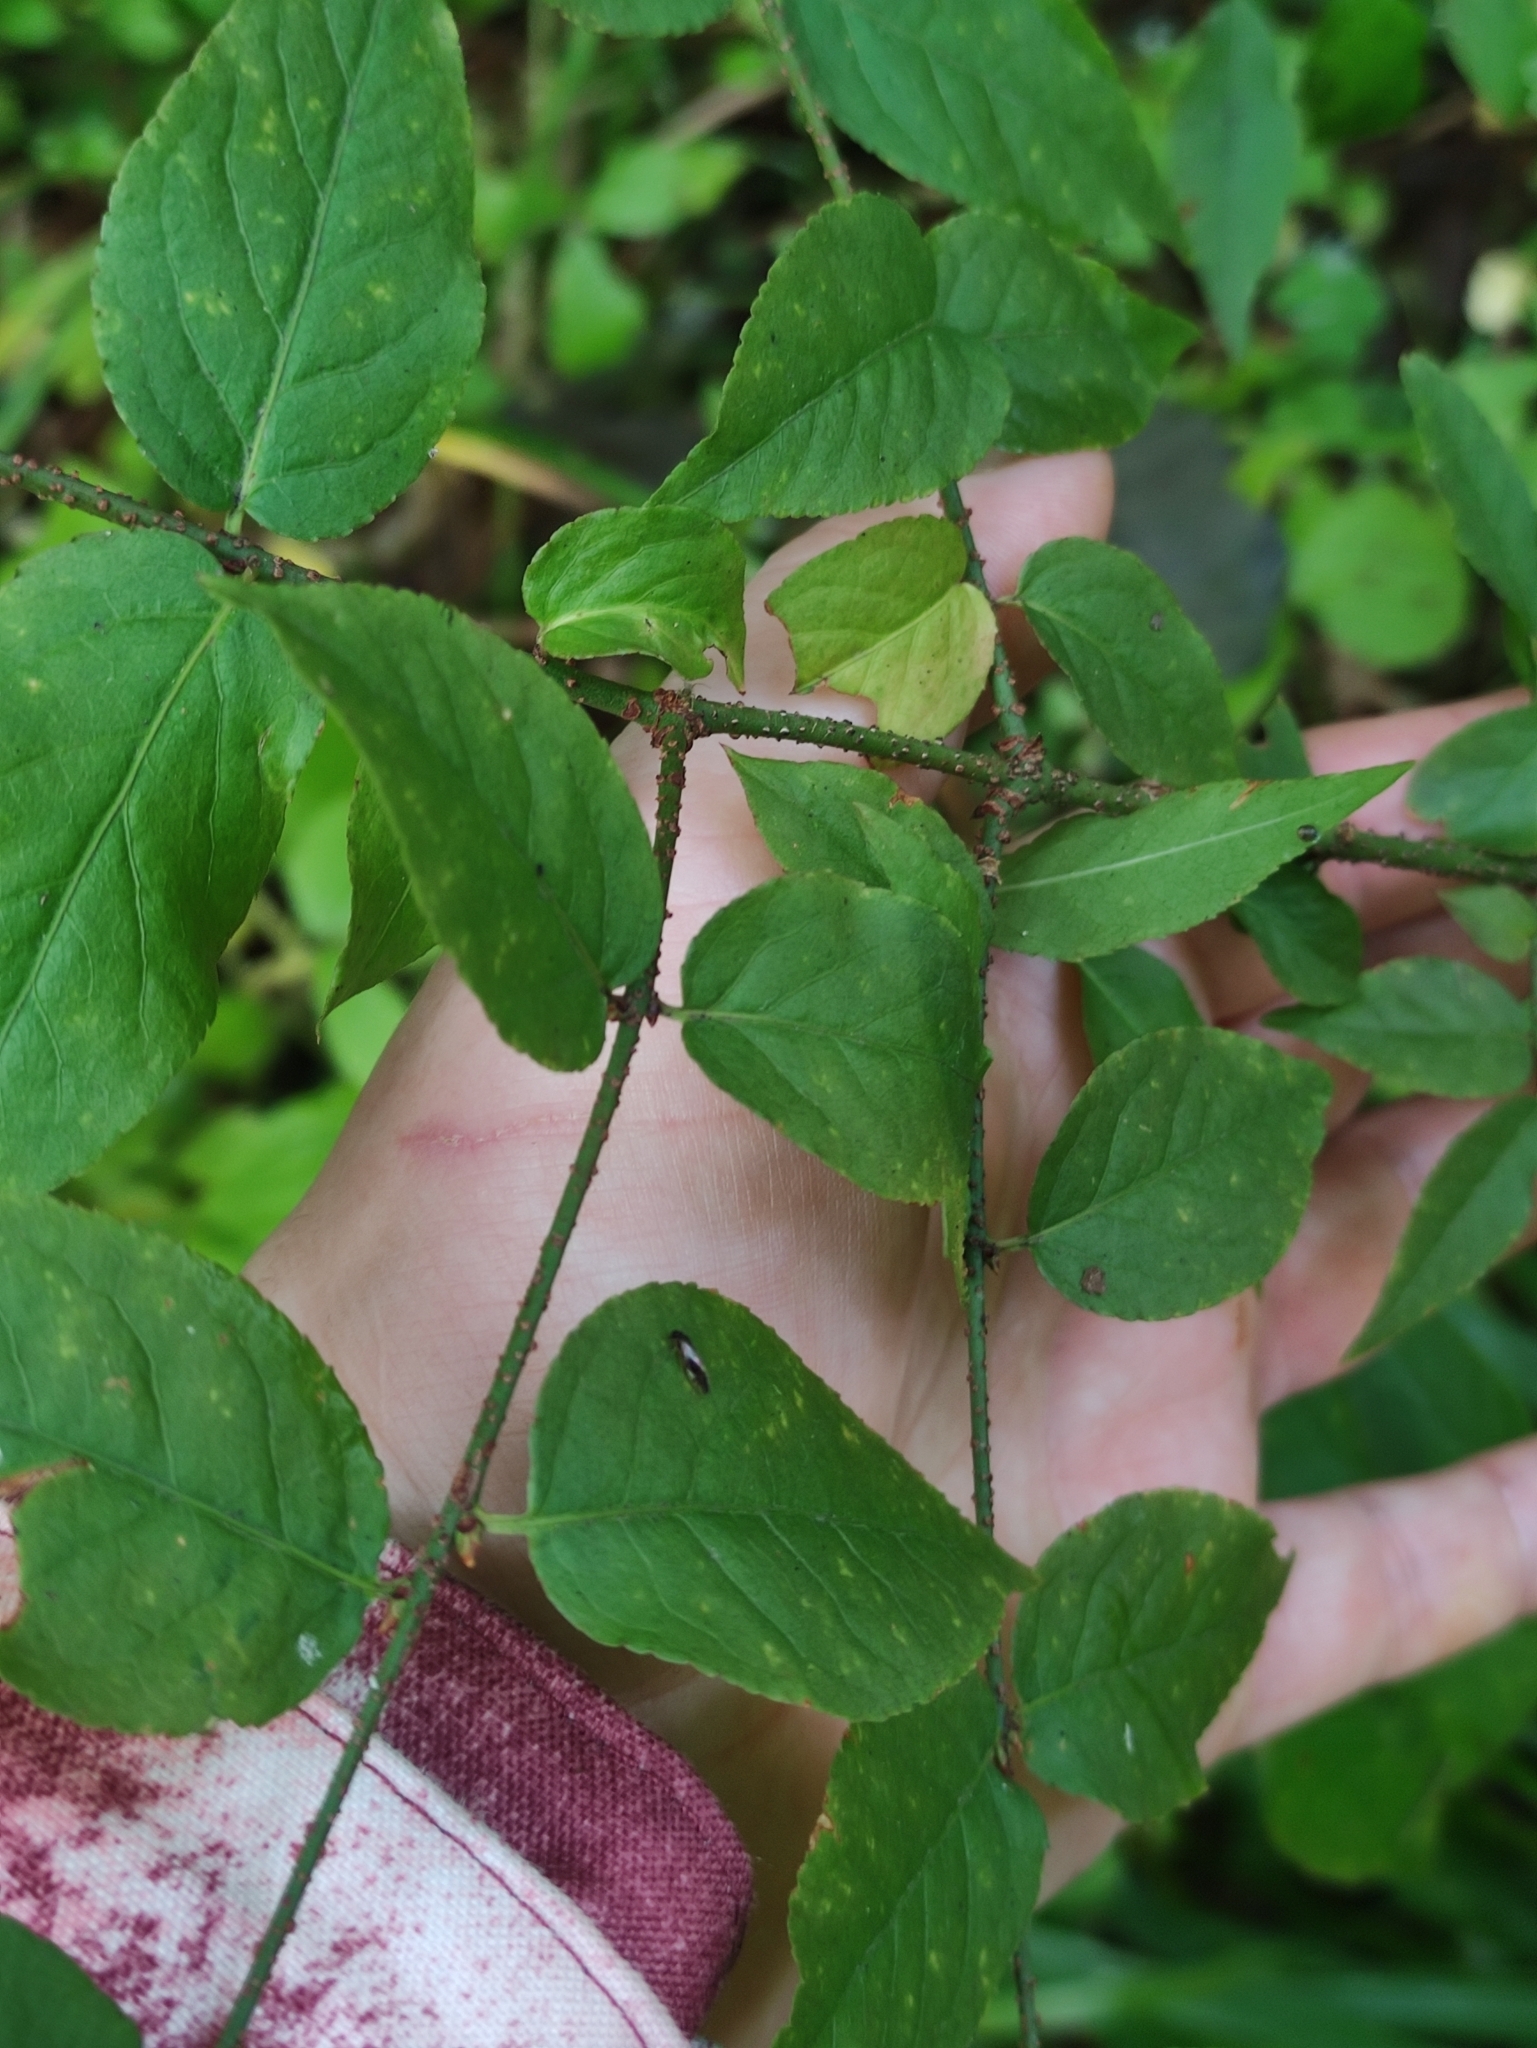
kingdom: Plantae
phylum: Tracheophyta
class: Magnoliopsida
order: Celastrales
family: Celastraceae
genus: Euonymus
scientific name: Euonymus verrucosus
